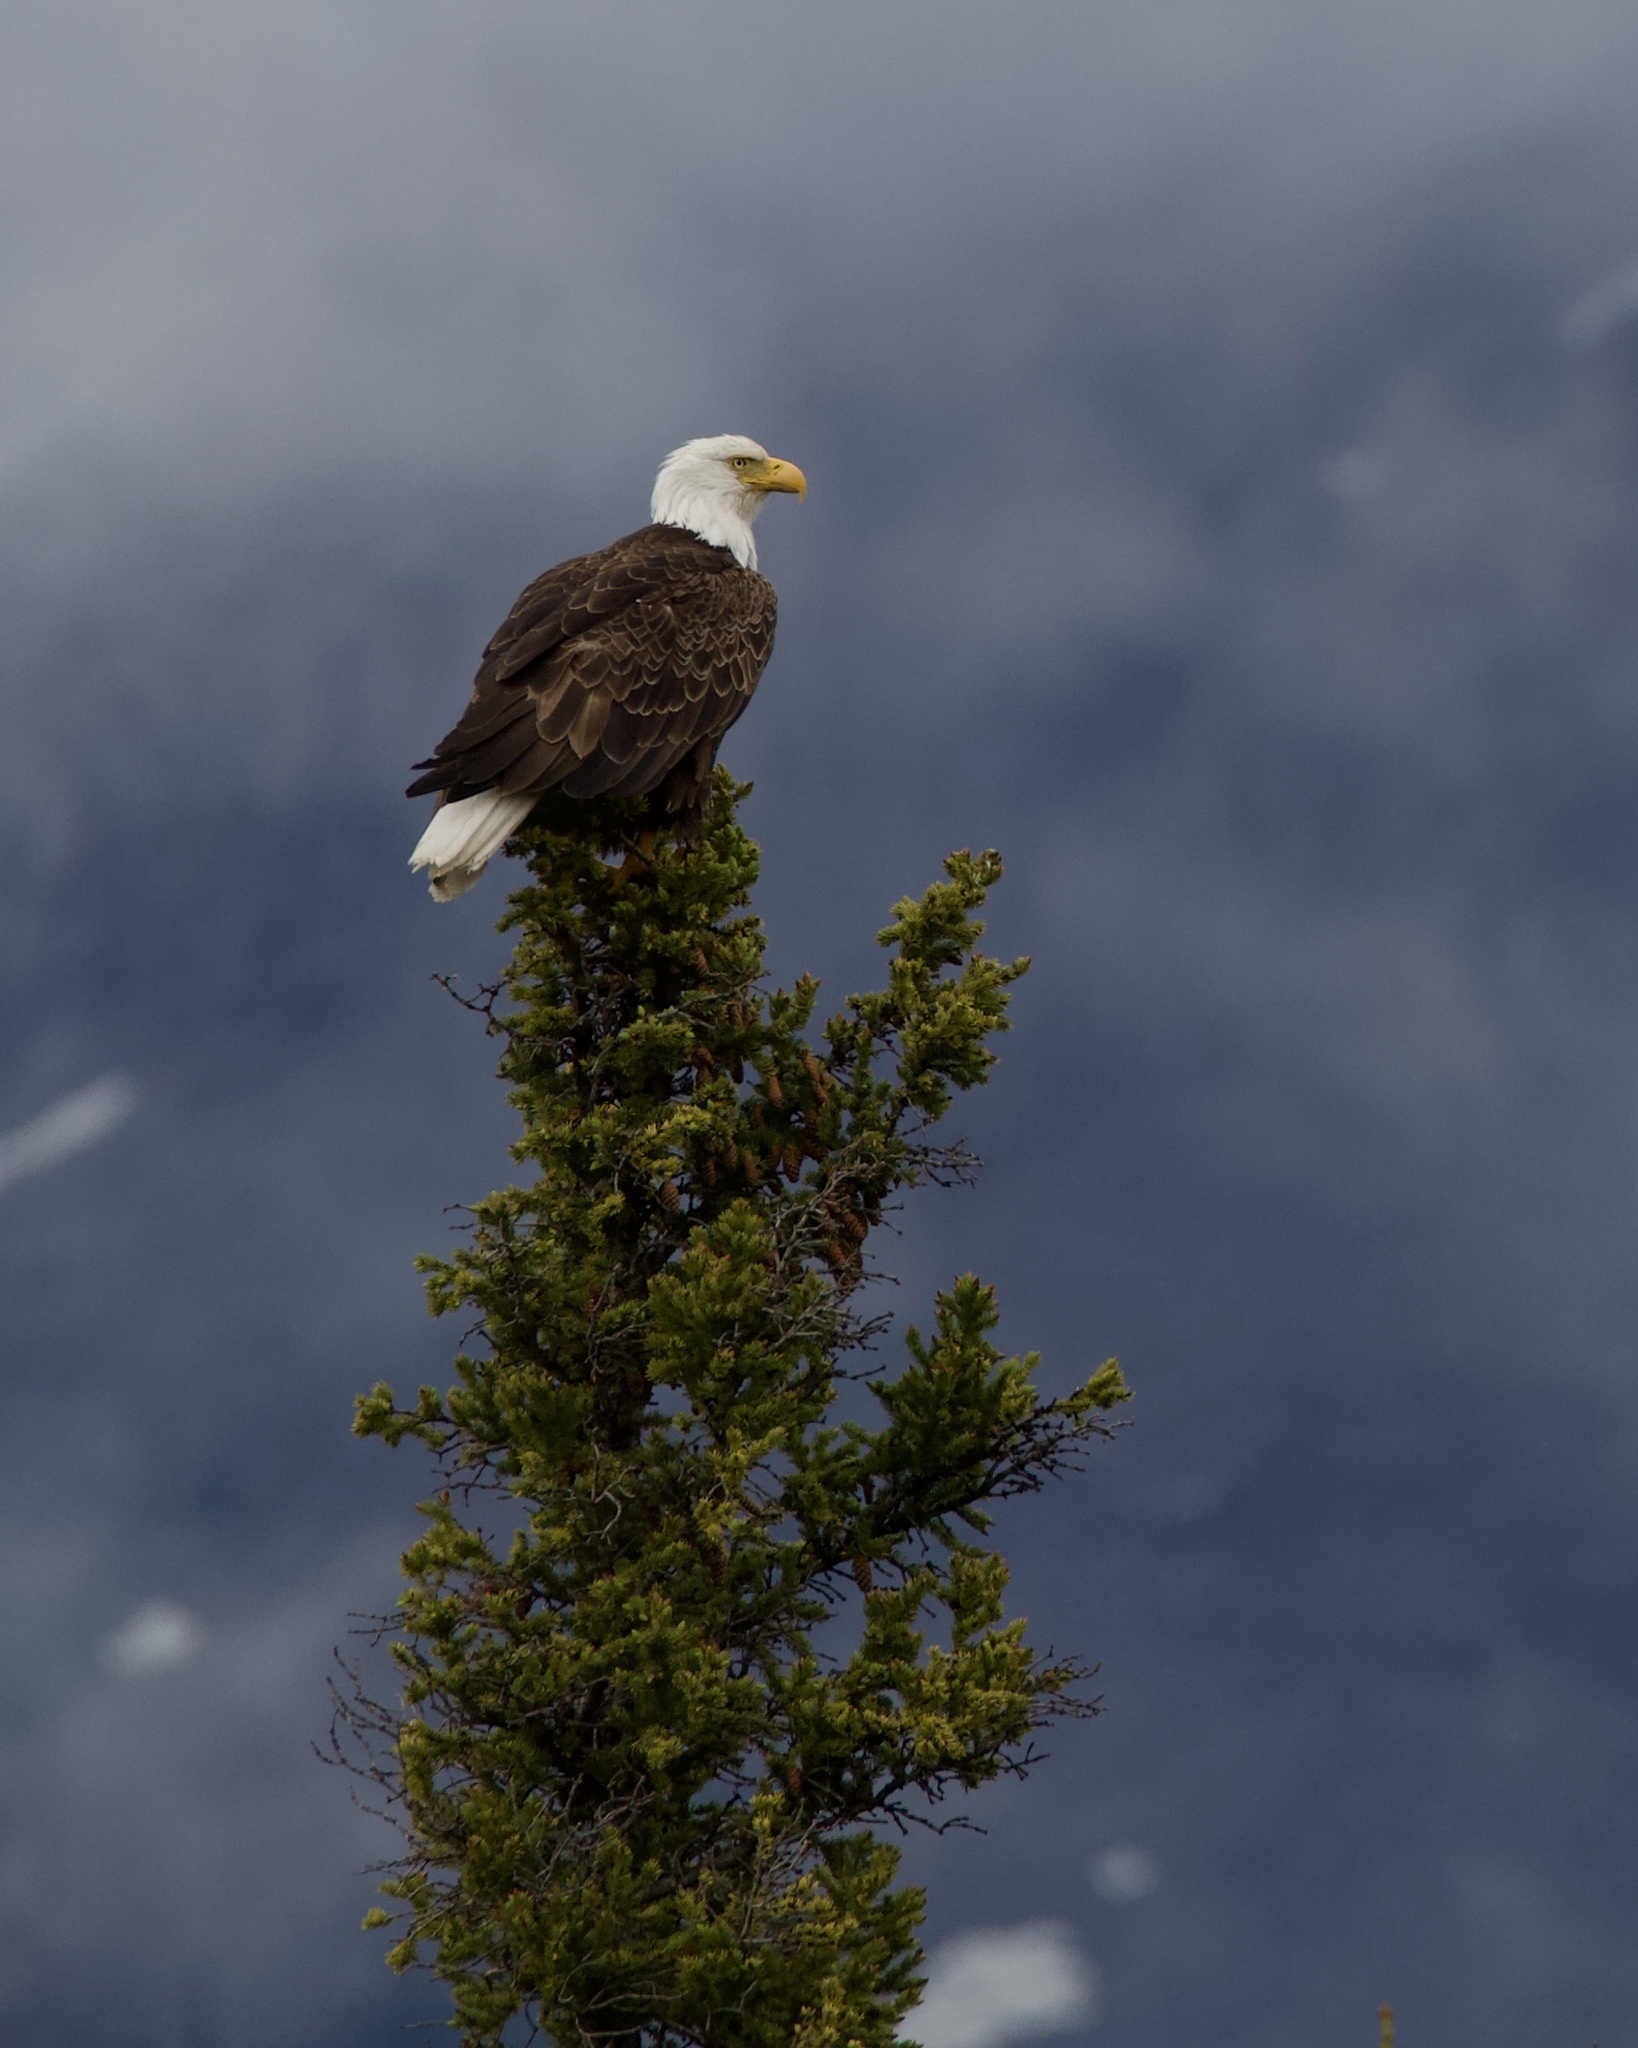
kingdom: Animalia
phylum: Chordata
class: Aves
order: Accipitriformes
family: Accipitridae
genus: Haliaeetus
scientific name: Haliaeetus leucocephalus
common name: Bald eagle
